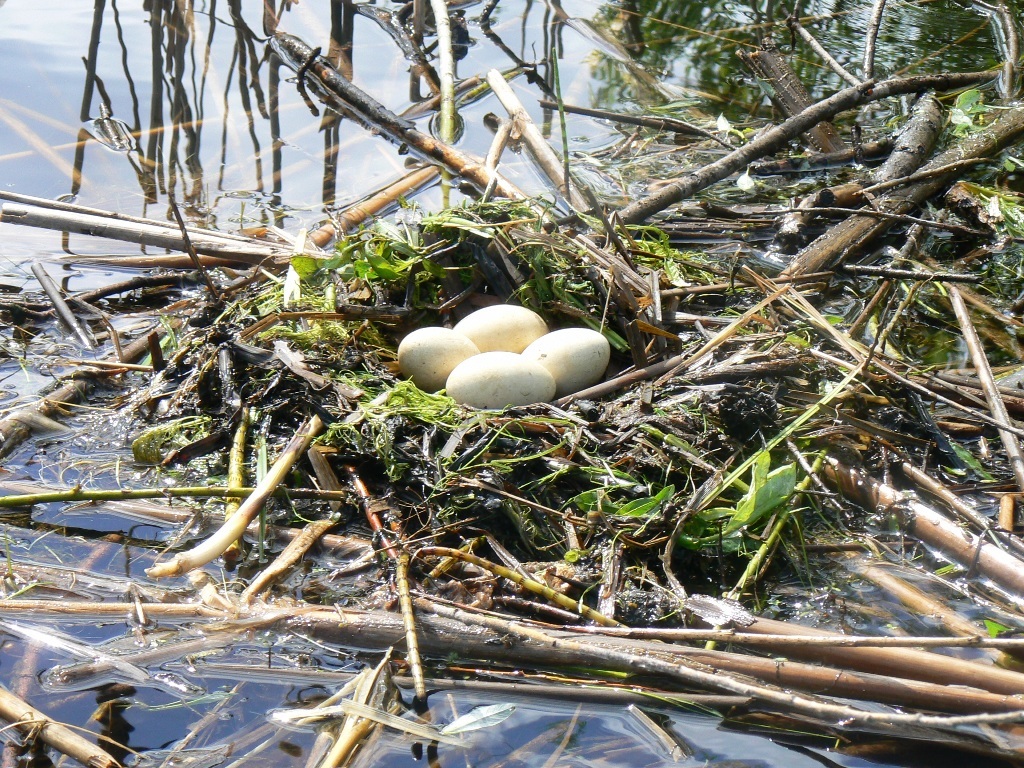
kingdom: Animalia
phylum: Chordata
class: Aves
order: Podicipediformes
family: Podicipedidae
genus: Podiceps
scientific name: Podiceps cristatus
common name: Great crested grebe
